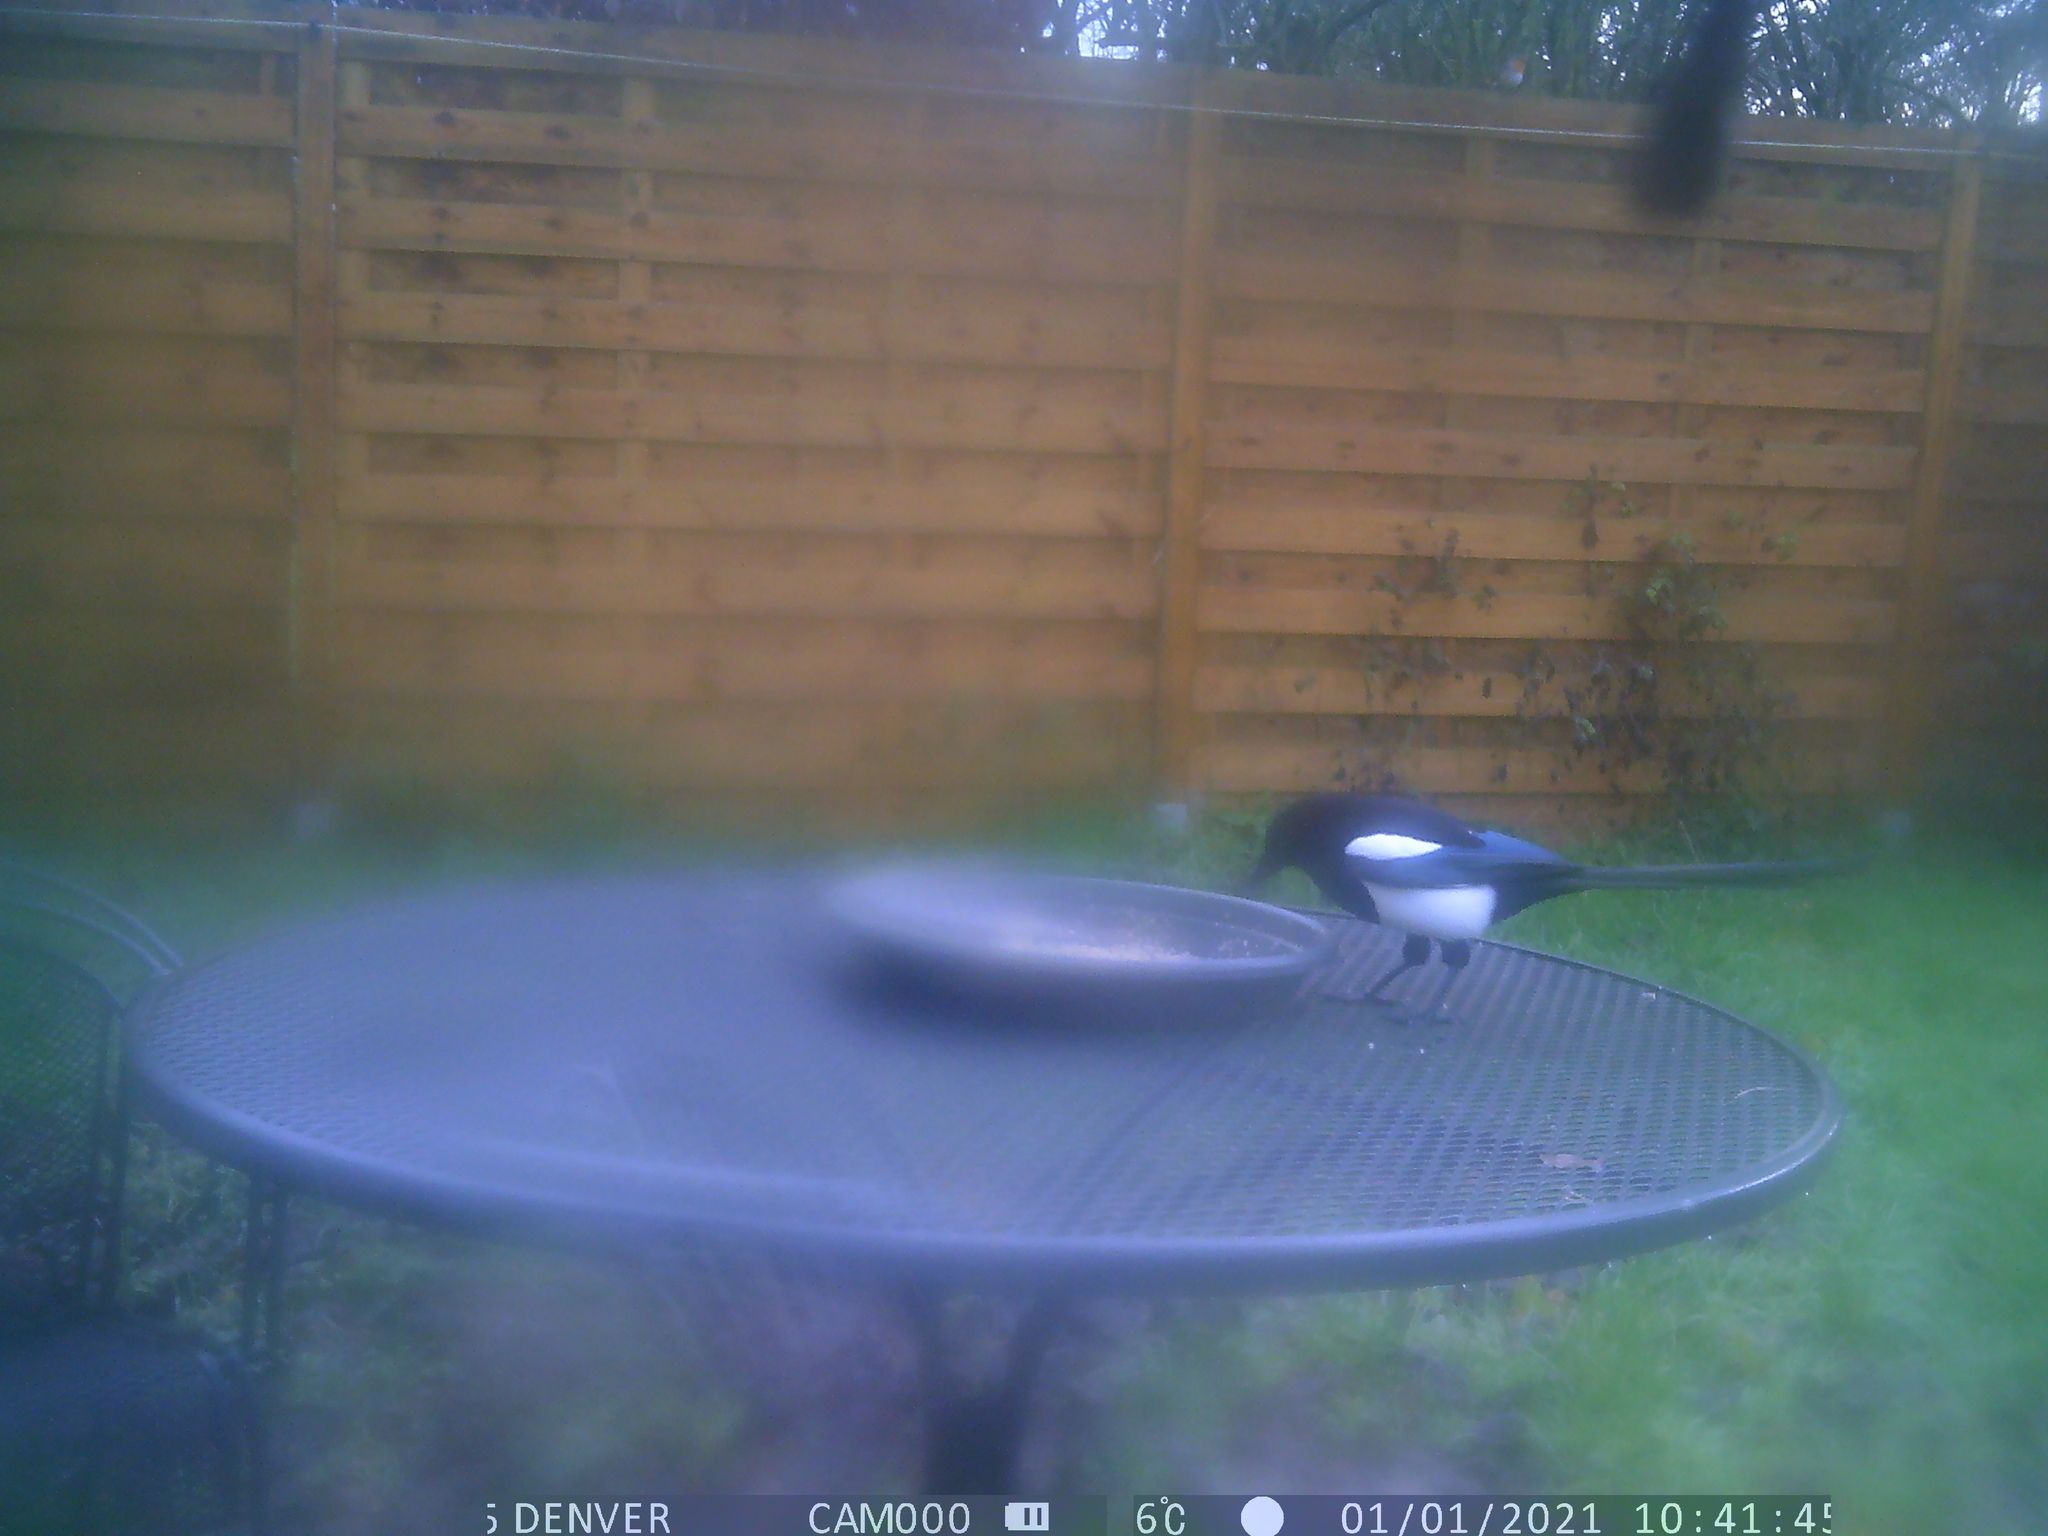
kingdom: Animalia
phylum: Chordata
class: Aves
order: Passeriformes
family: Corvidae
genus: Pica
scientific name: Pica pica
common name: Eurasian magpie
